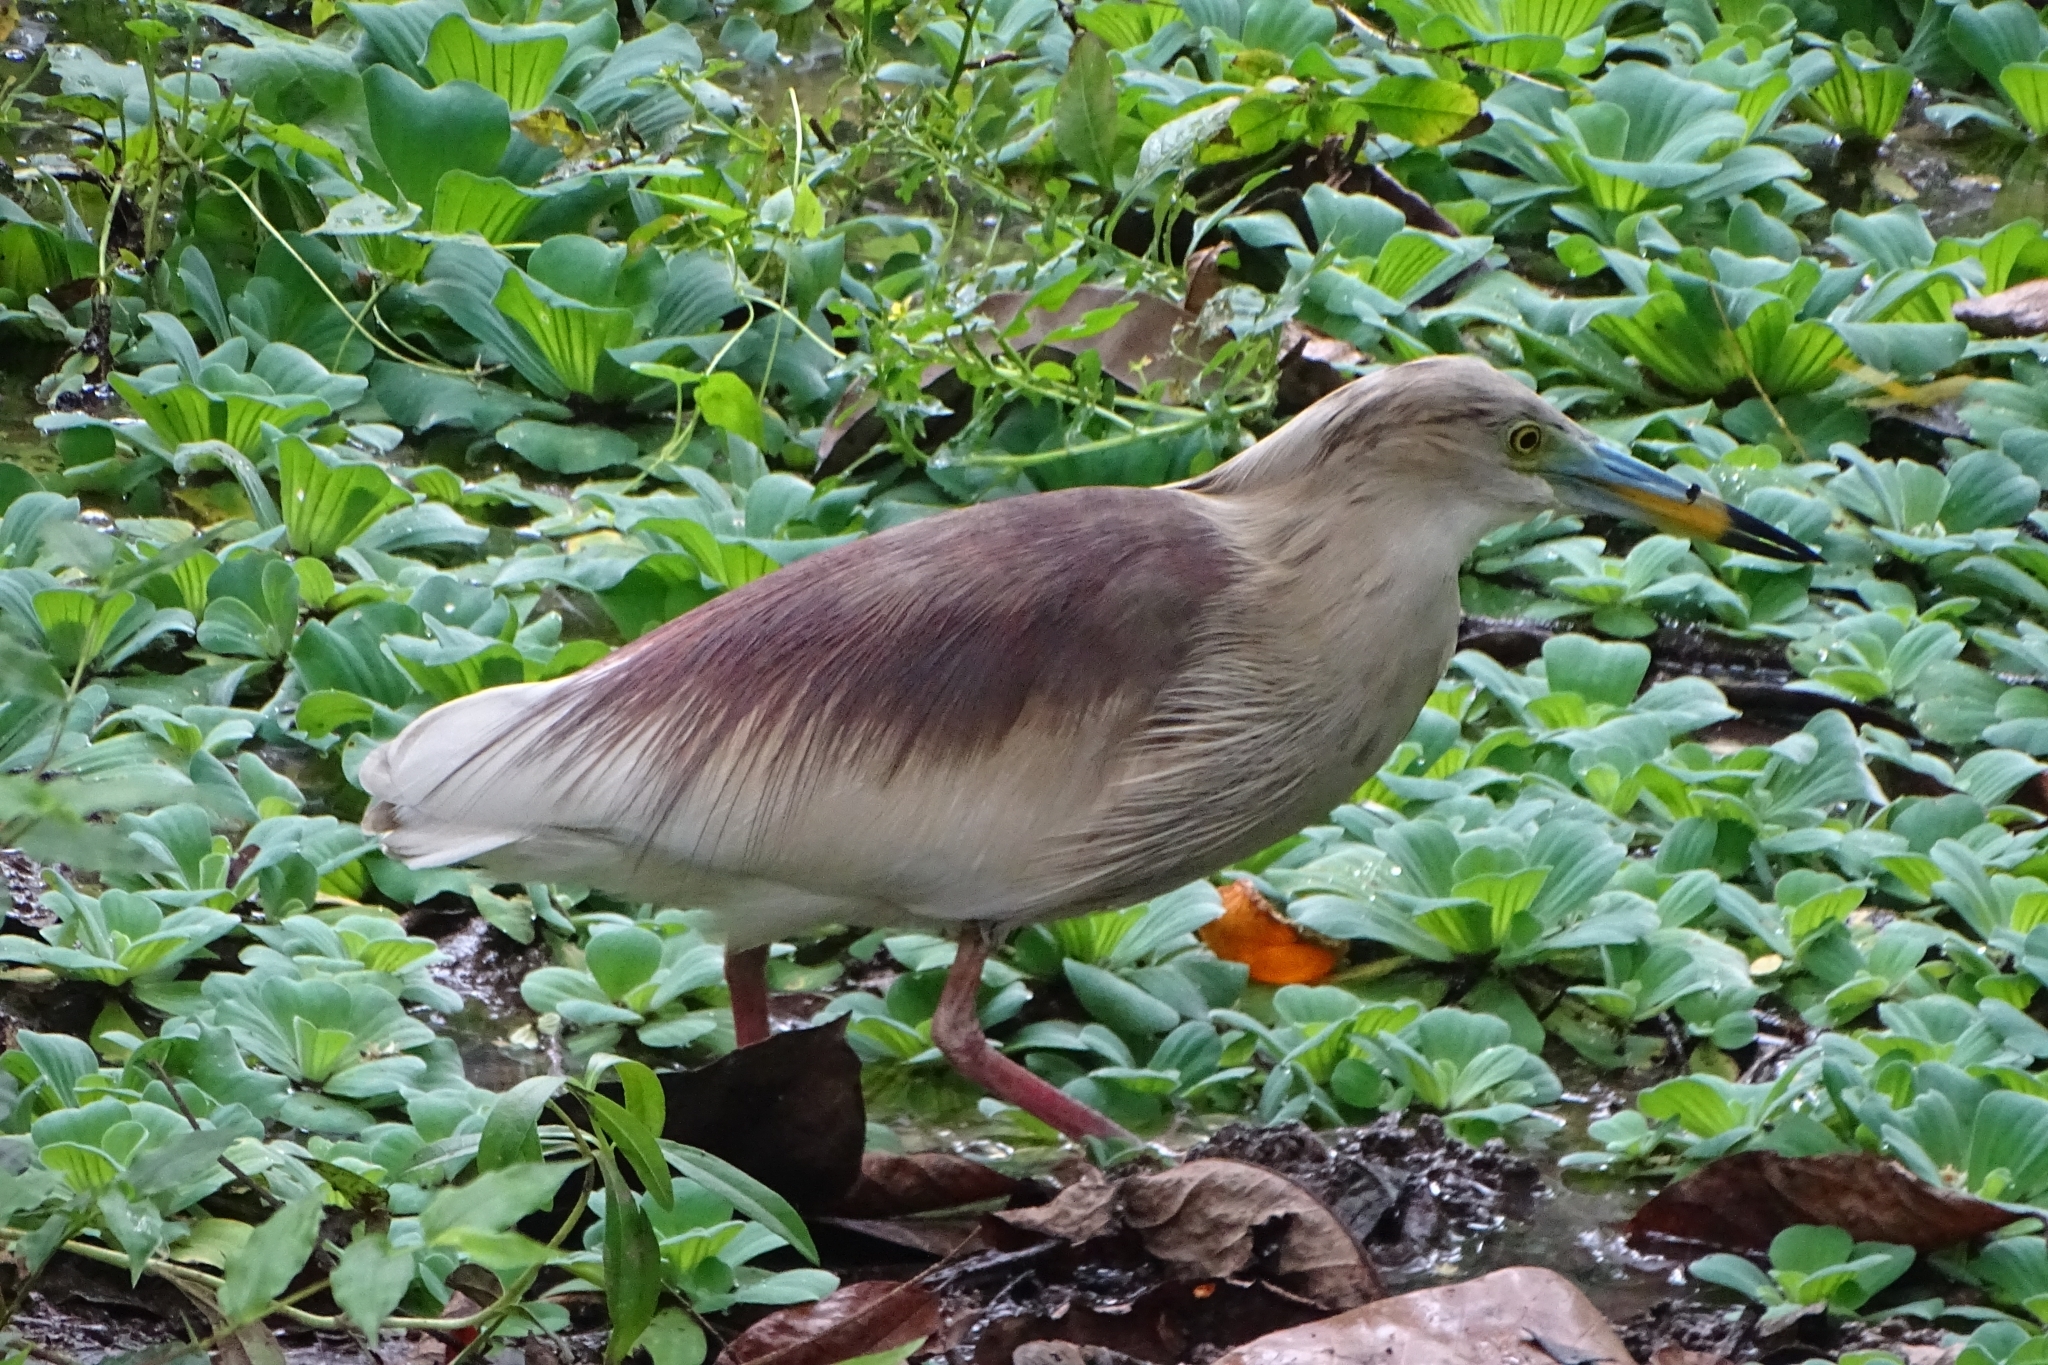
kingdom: Animalia
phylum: Chordata
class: Aves
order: Pelecaniformes
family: Ardeidae
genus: Ardeola
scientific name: Ardeola grayii
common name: Indian pond heron
